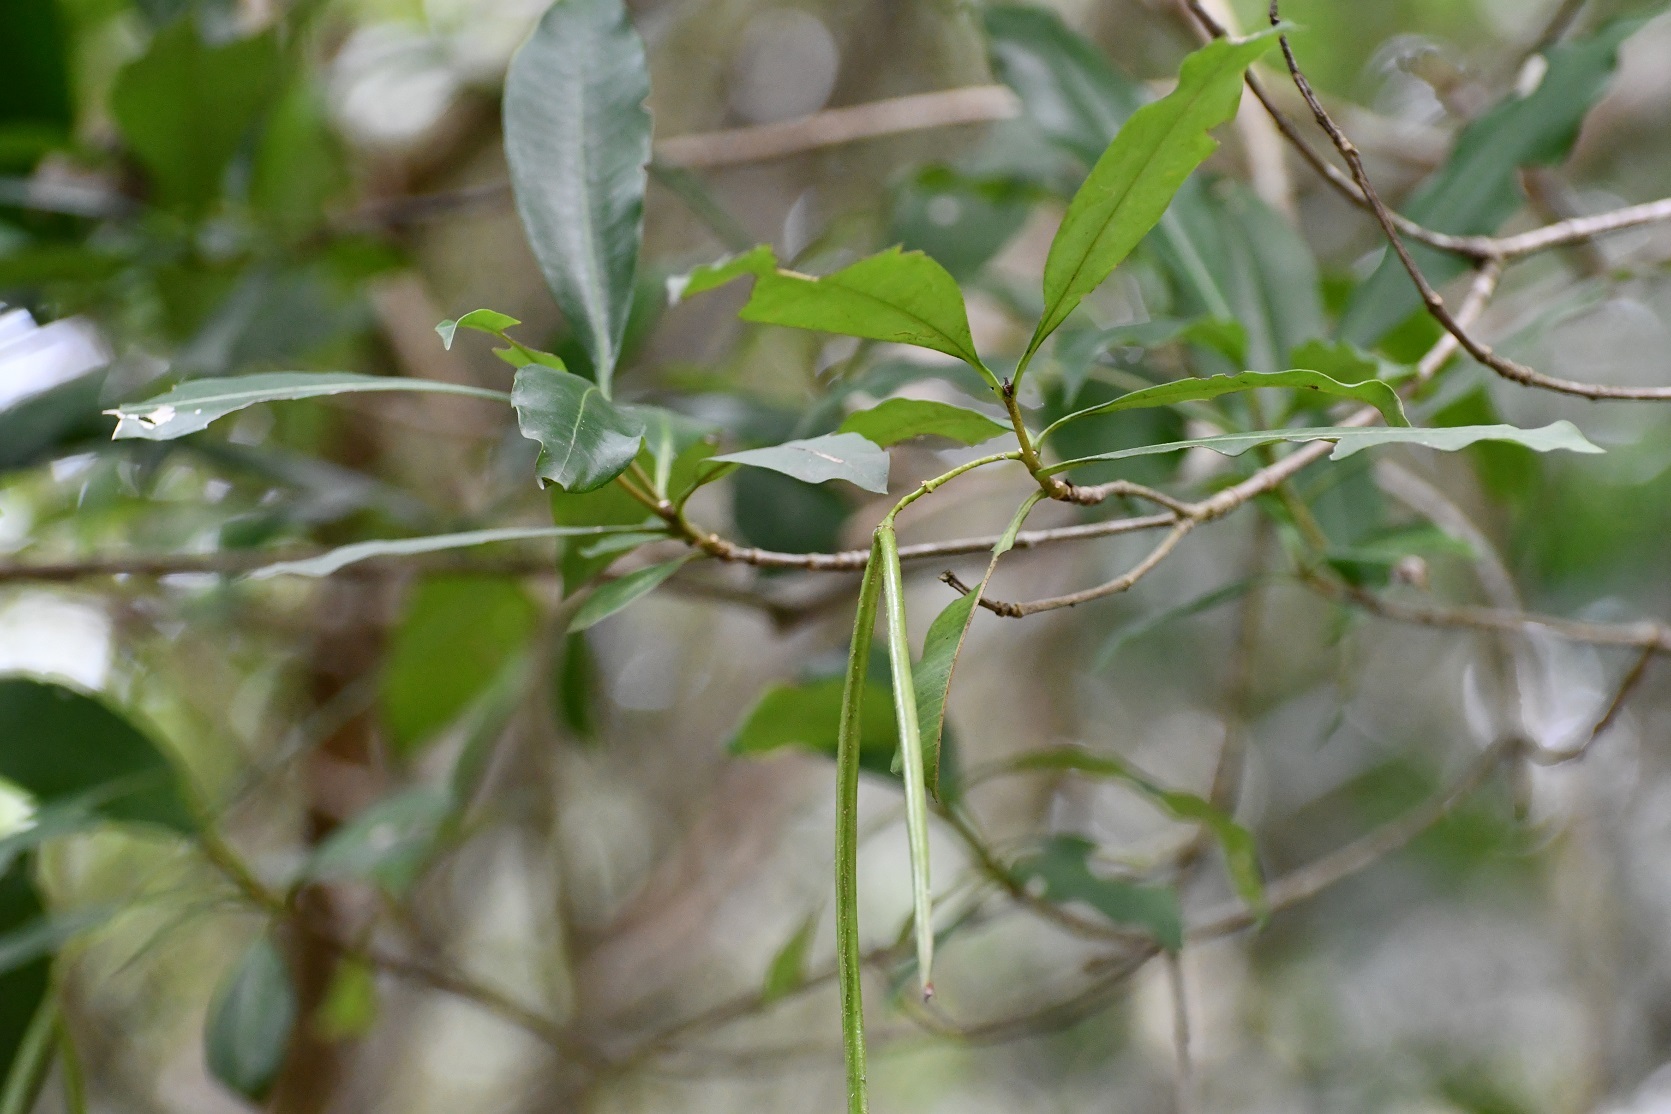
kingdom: Plantae
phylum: Tracheophyta
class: Magnoliopsida
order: Gentianales
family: Apocynaceae
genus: Tonduzia
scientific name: Tonduzia longifolia
